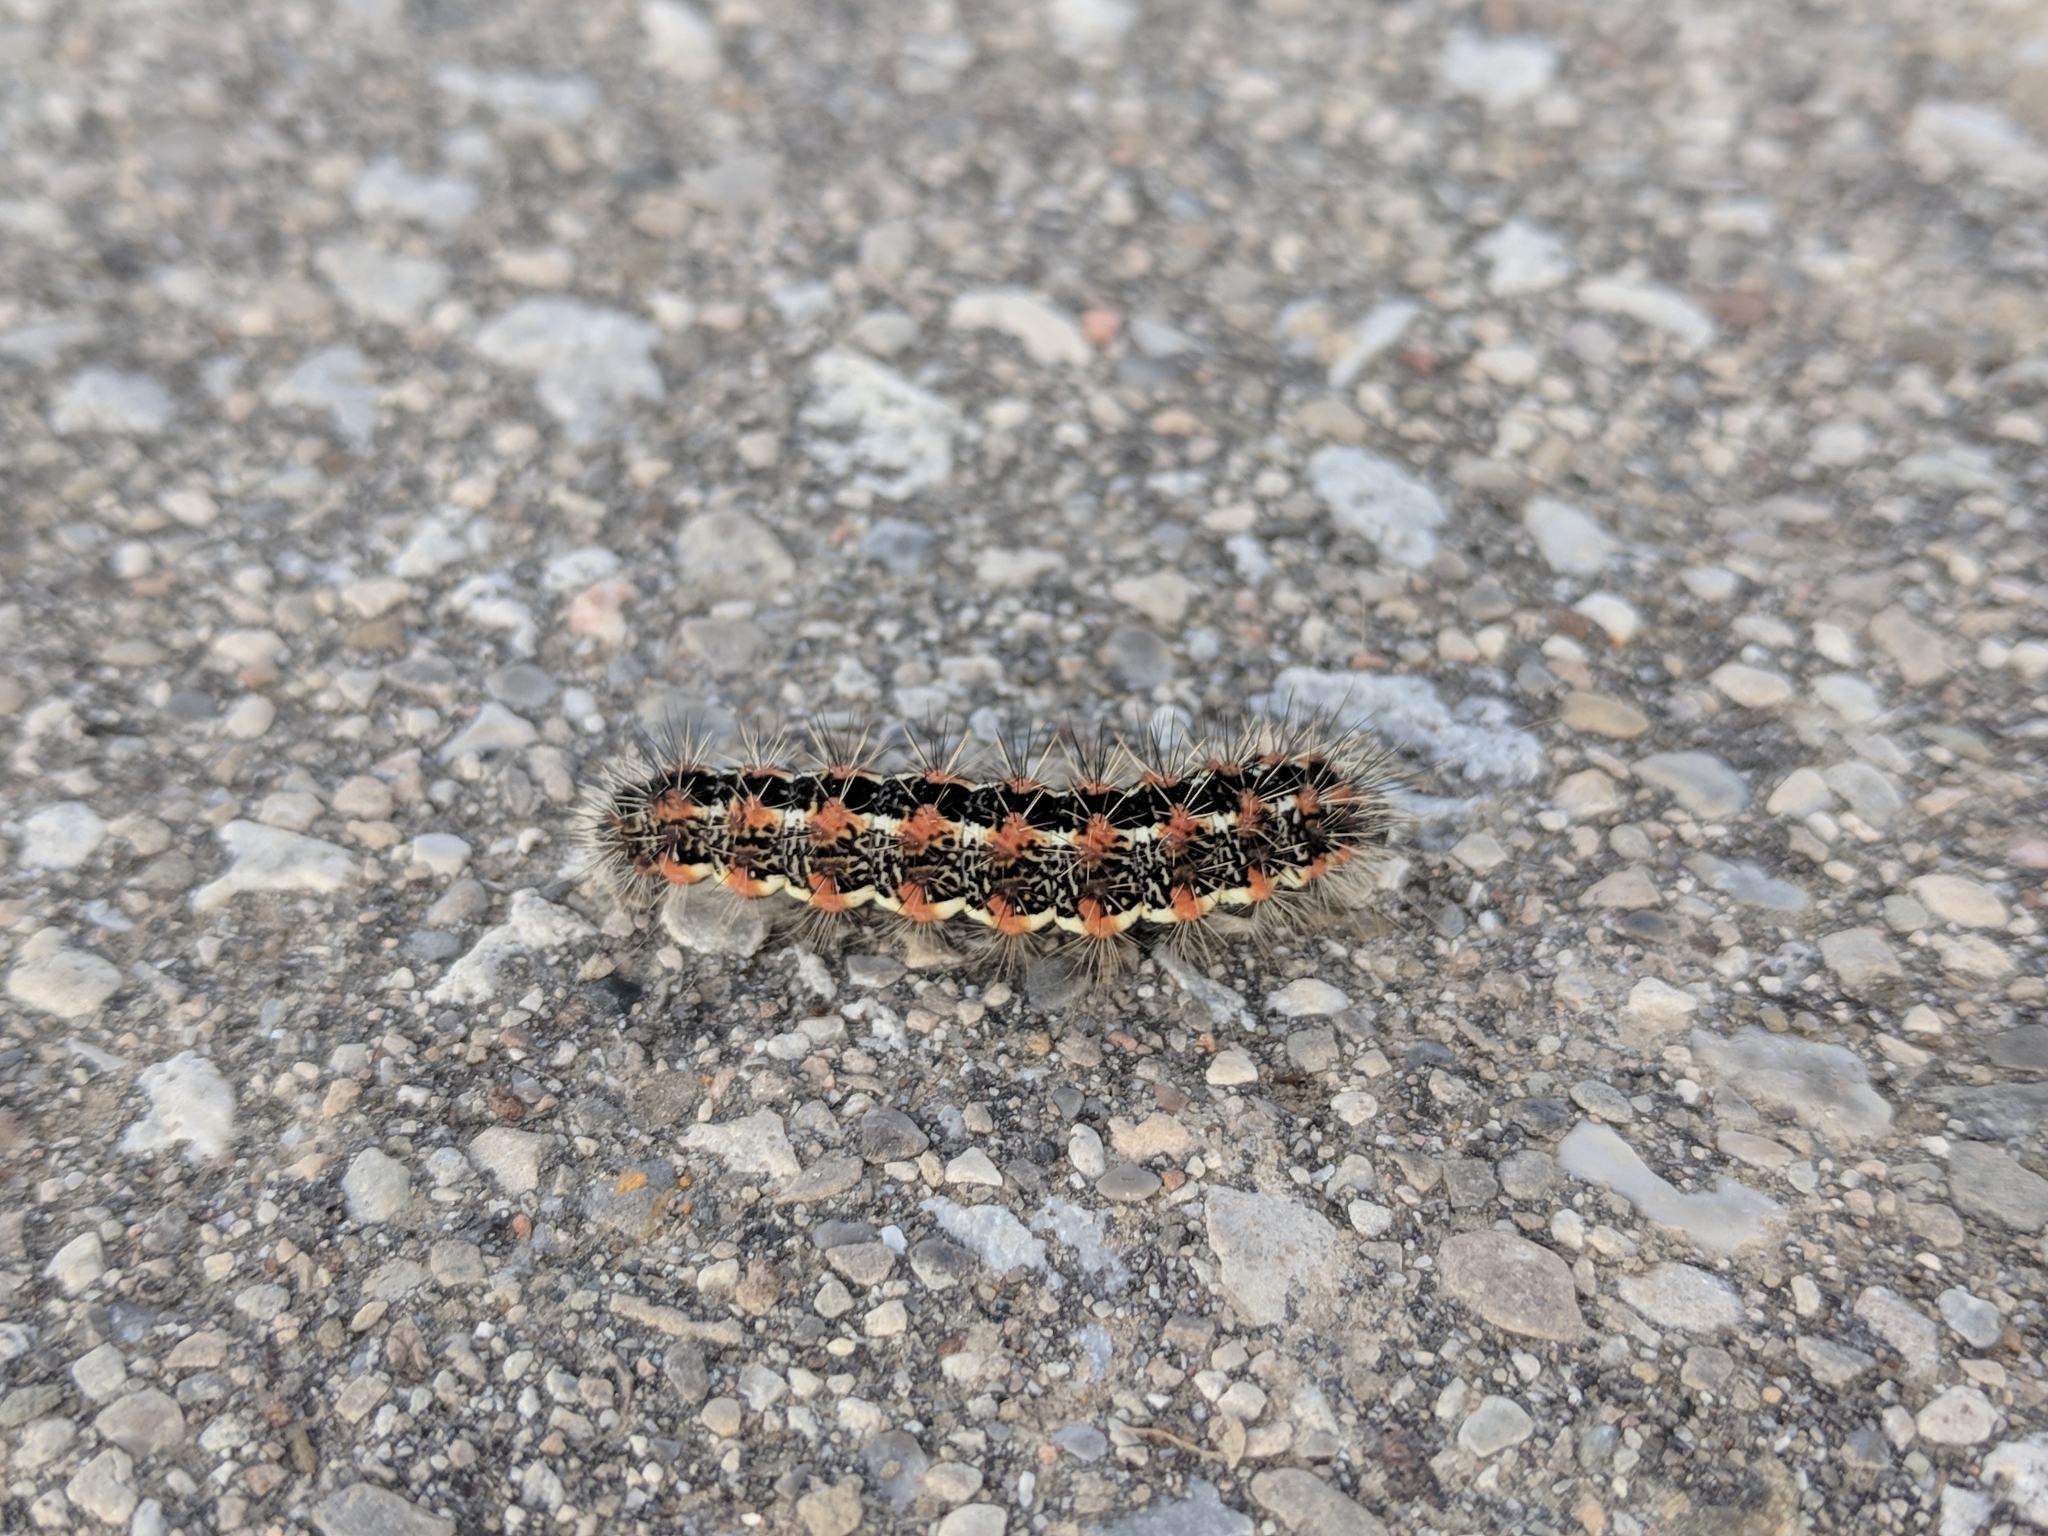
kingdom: Animalia
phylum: Arthropoda
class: Insecta
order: Lepidoptera
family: Noctuidae
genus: Acronicta
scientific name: Acronicta insularis
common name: Henry's marsh moth
